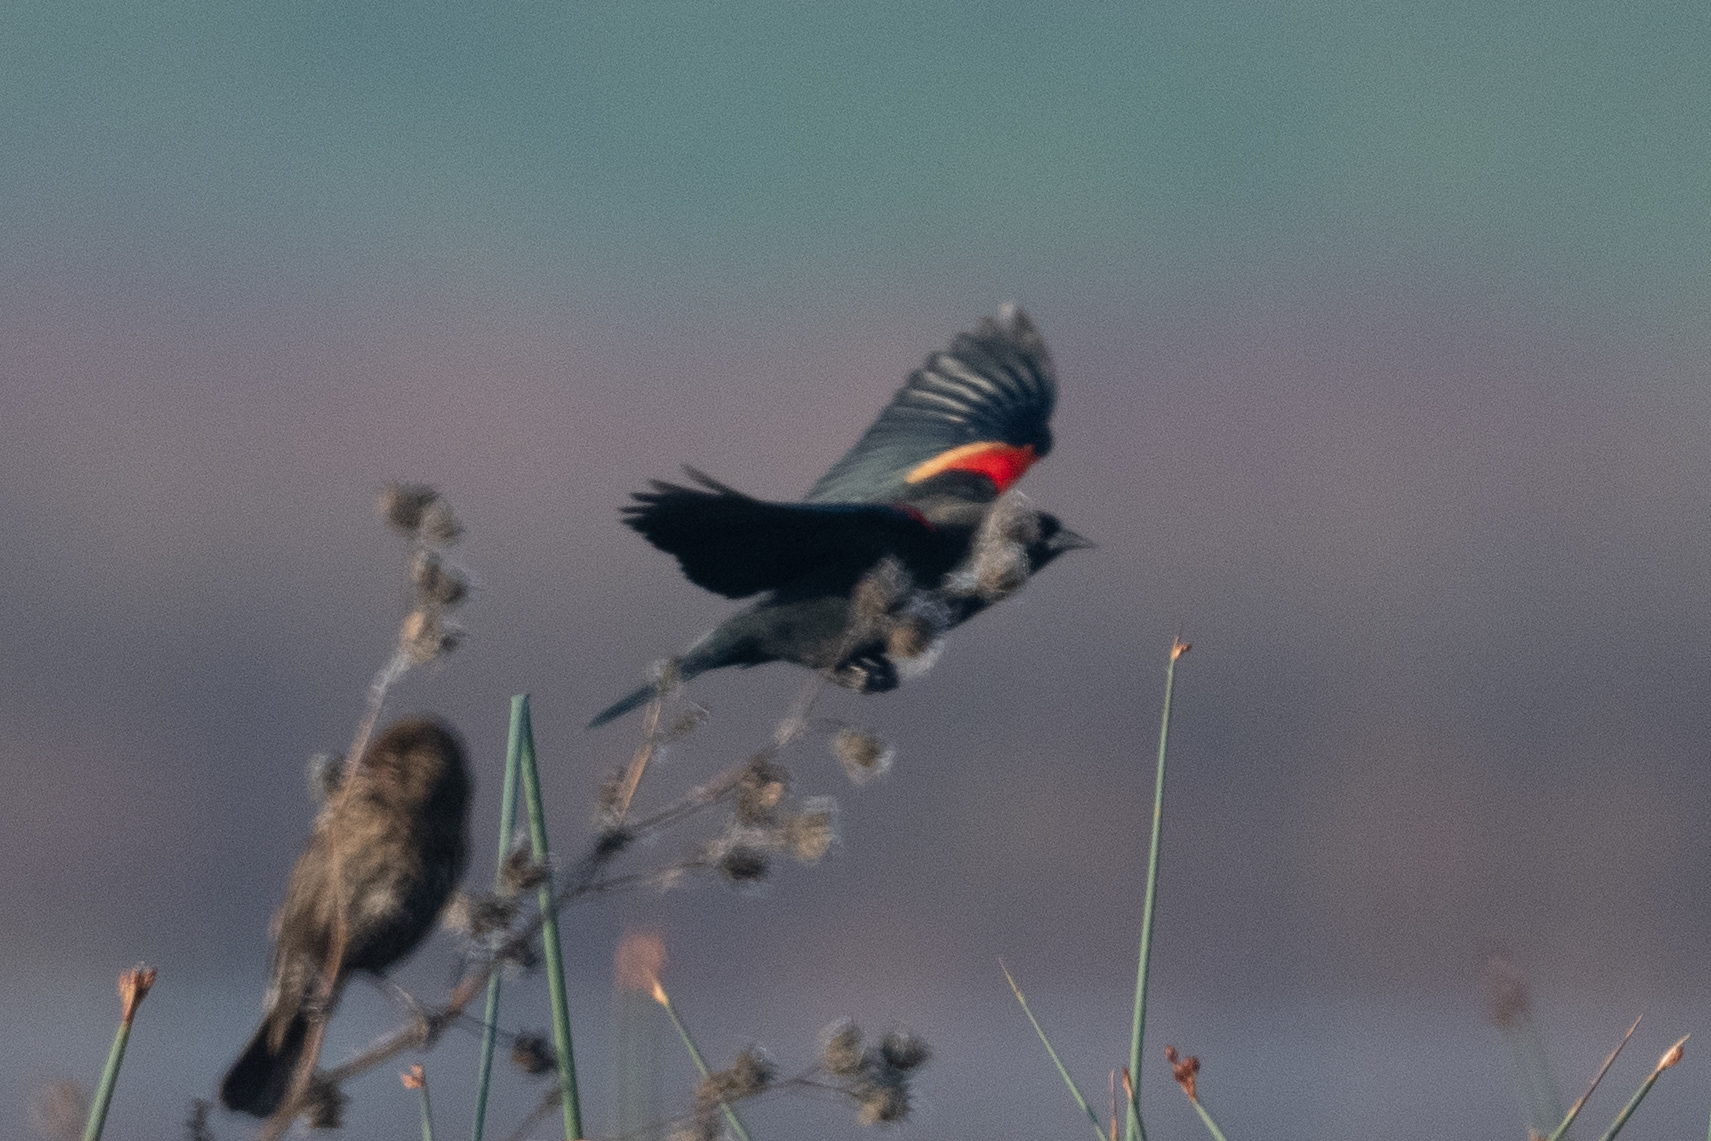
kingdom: Animalia
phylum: Chordata
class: Aves
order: Passeriformes
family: Icteridae
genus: Agelaius
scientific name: Agelaius phoeniceus
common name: Red-winged blackbird
